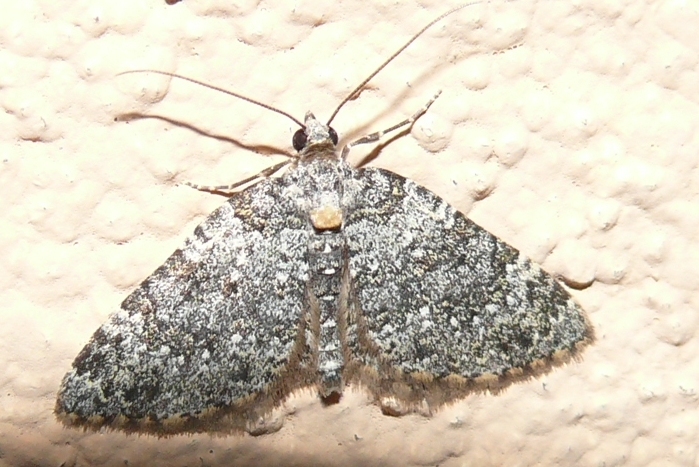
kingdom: Animalia
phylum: Arthropoda
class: Insecta
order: Lepidoptera
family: Geometridae
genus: Perizoma
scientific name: Perizoma petrogenes
